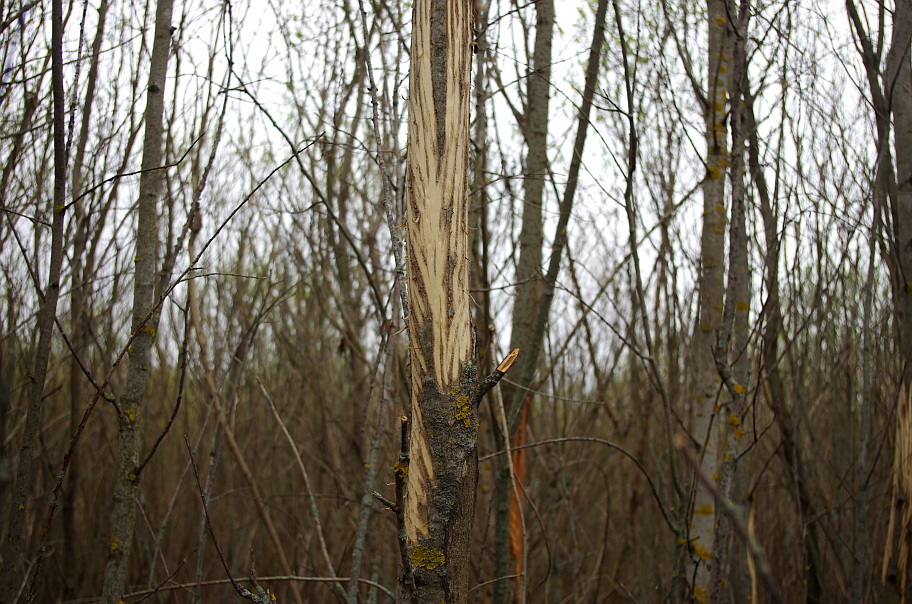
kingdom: Animalia
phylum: Chordata
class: Mammalia
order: Artiodactyla
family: Cervidae
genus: Alces
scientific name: Alces alces
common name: Moose
